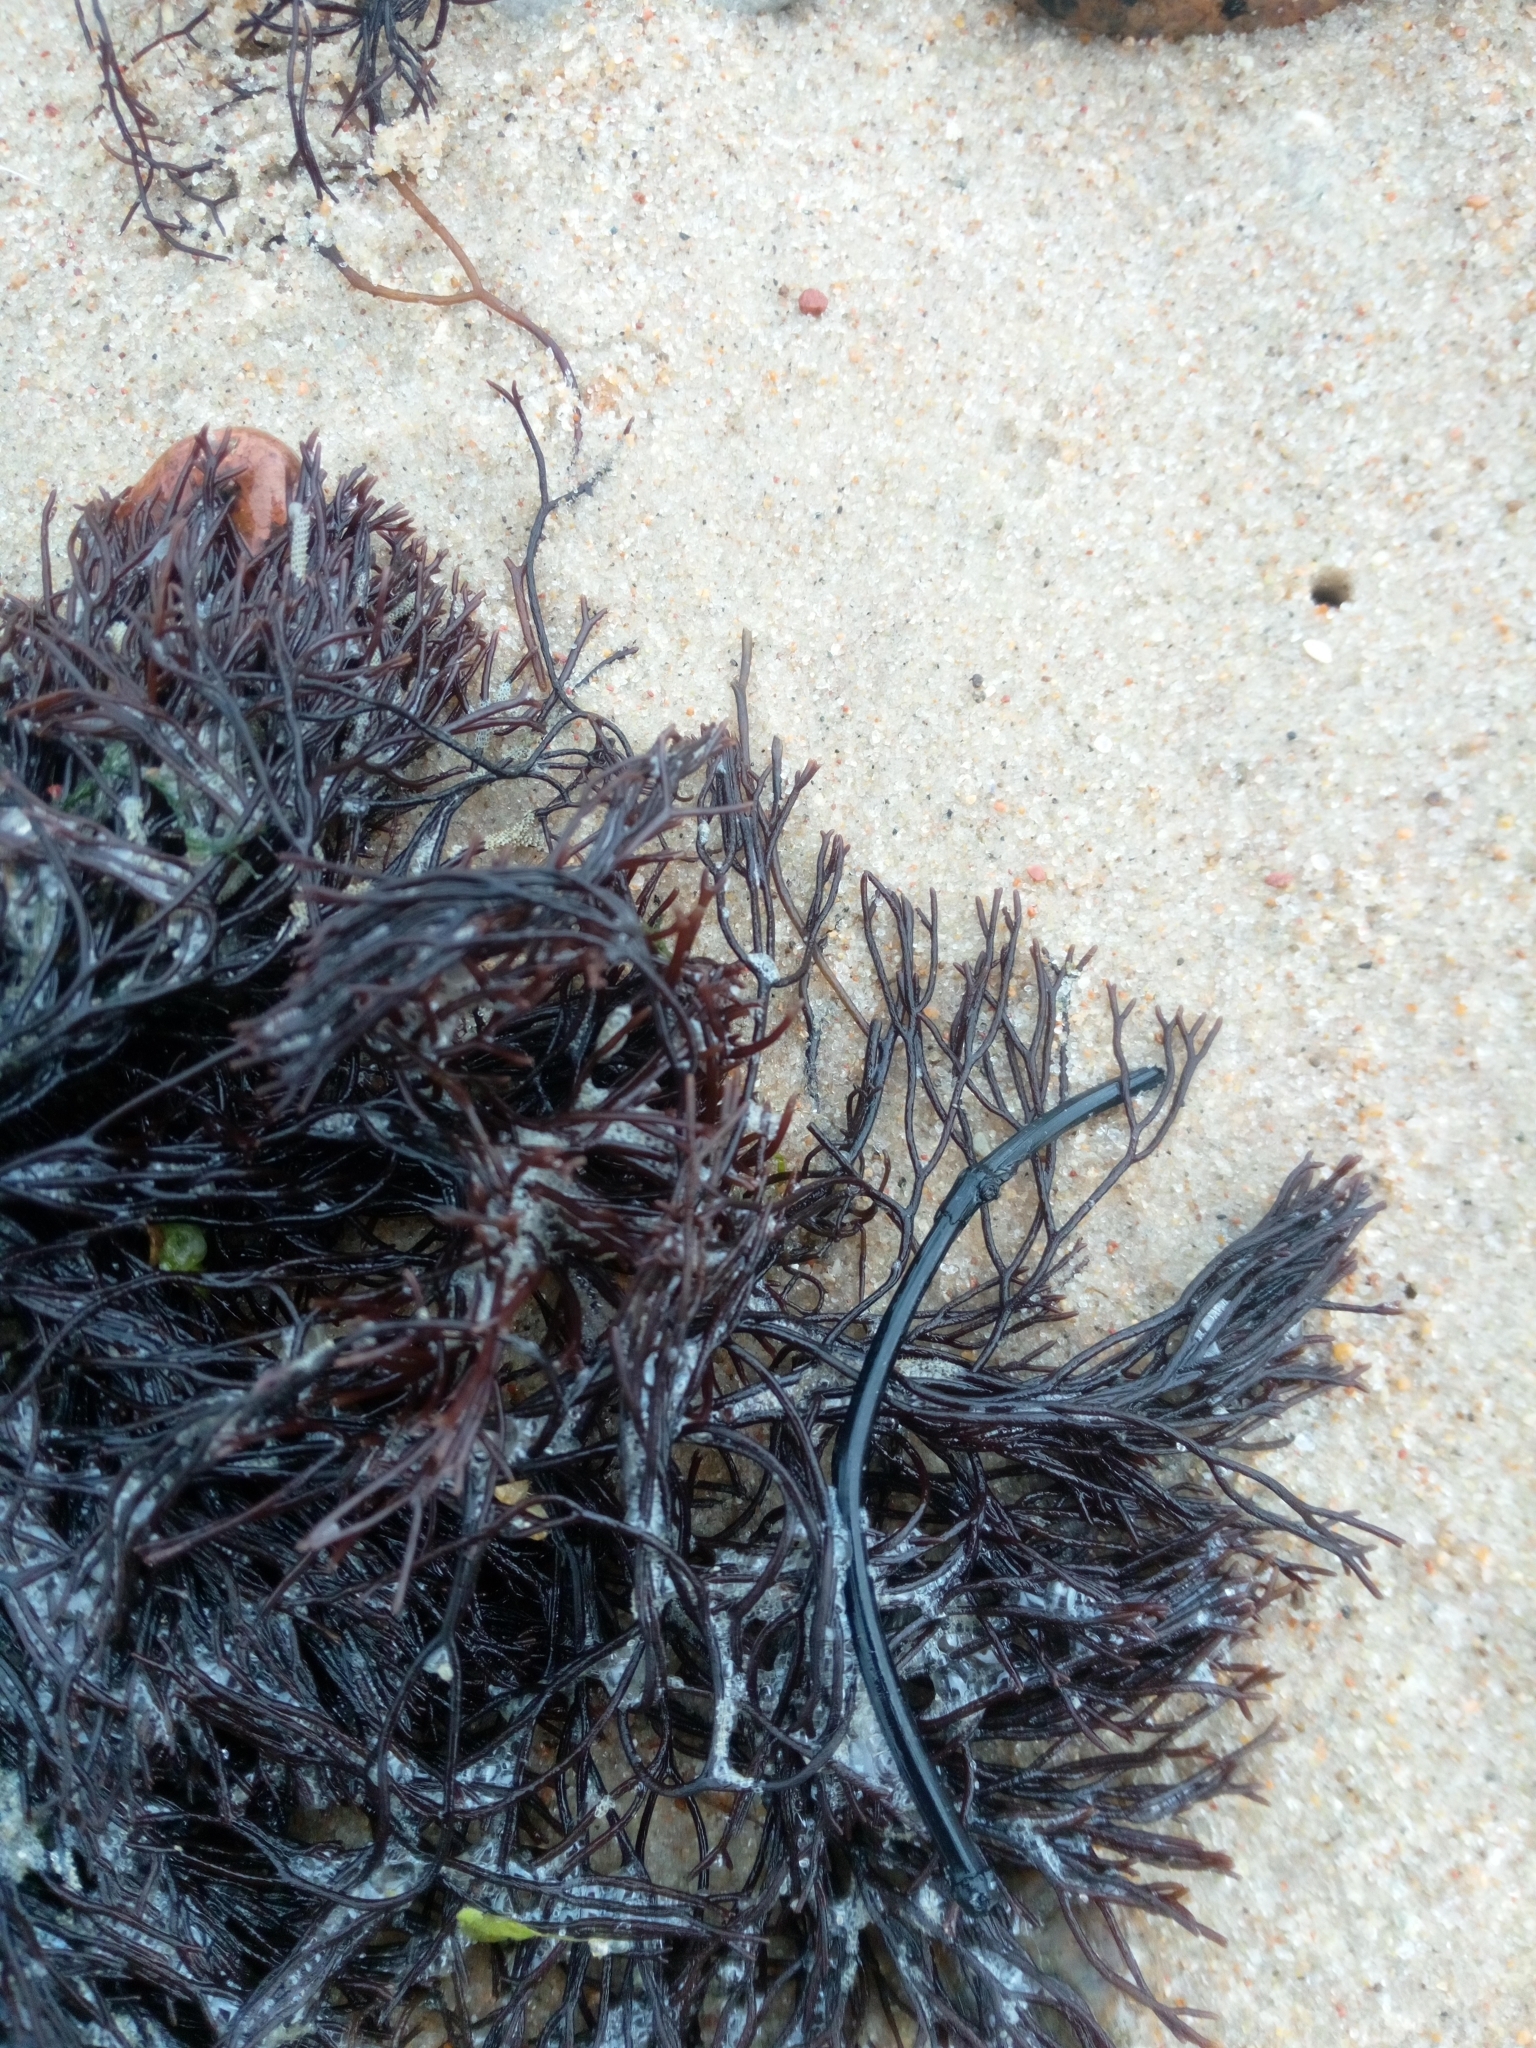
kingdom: Plantae
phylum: Rhodophyta
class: Florideophyceae
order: Gigartinales
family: Furcellariaceae
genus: Furcellaria
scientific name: Furcellaria lumbricalis
